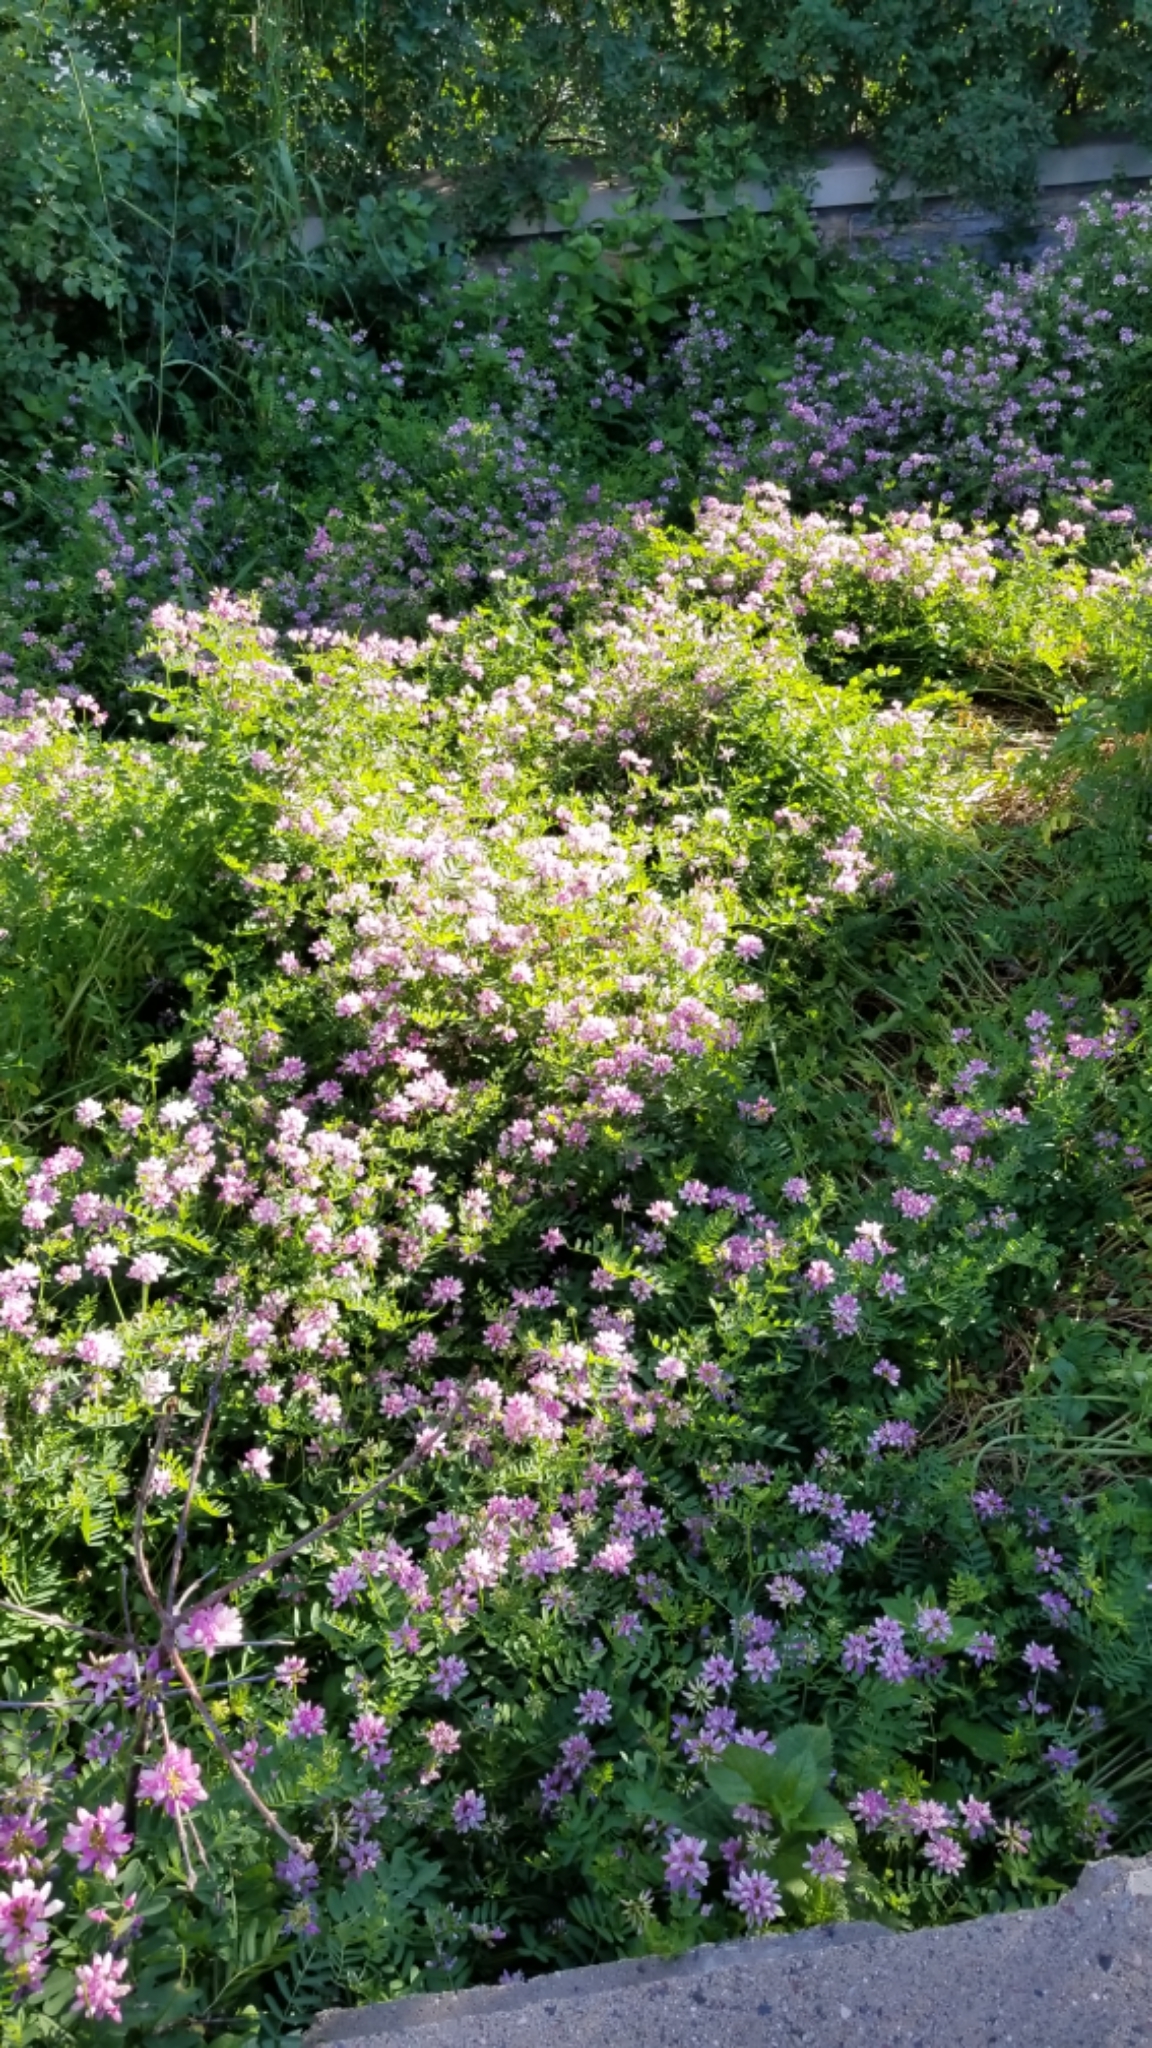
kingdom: Plantae
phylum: Tracheophyta
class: Magnoliopsida
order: Fabales
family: Fabaceae
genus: Coronilla
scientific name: Coronilla varia
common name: Crownvetch
